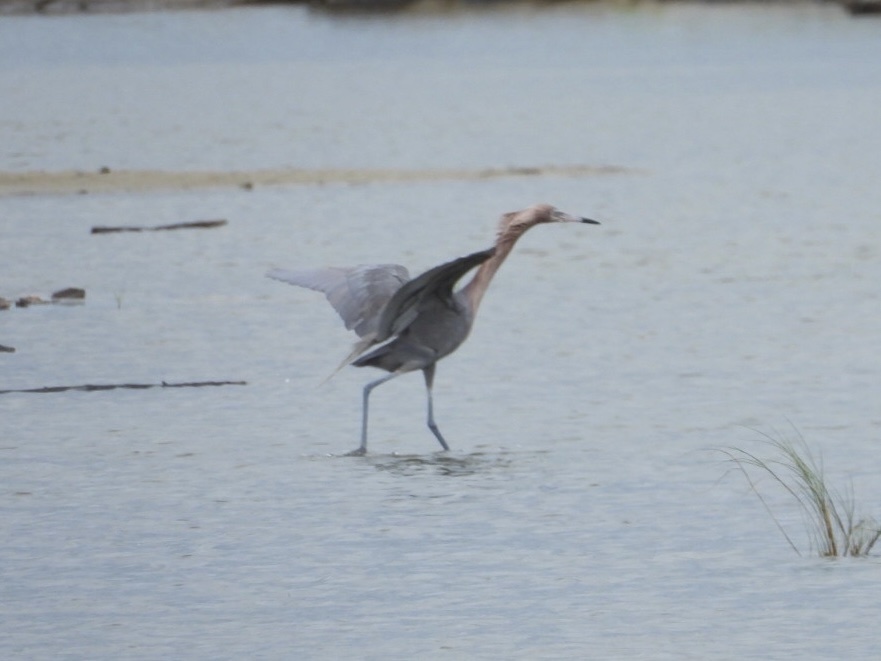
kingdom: Animalia
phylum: Chordata
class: Aves
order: Pelecaniformes
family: Ardeidae
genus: Egretta
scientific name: Egretta rufescens
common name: Reddish egret
